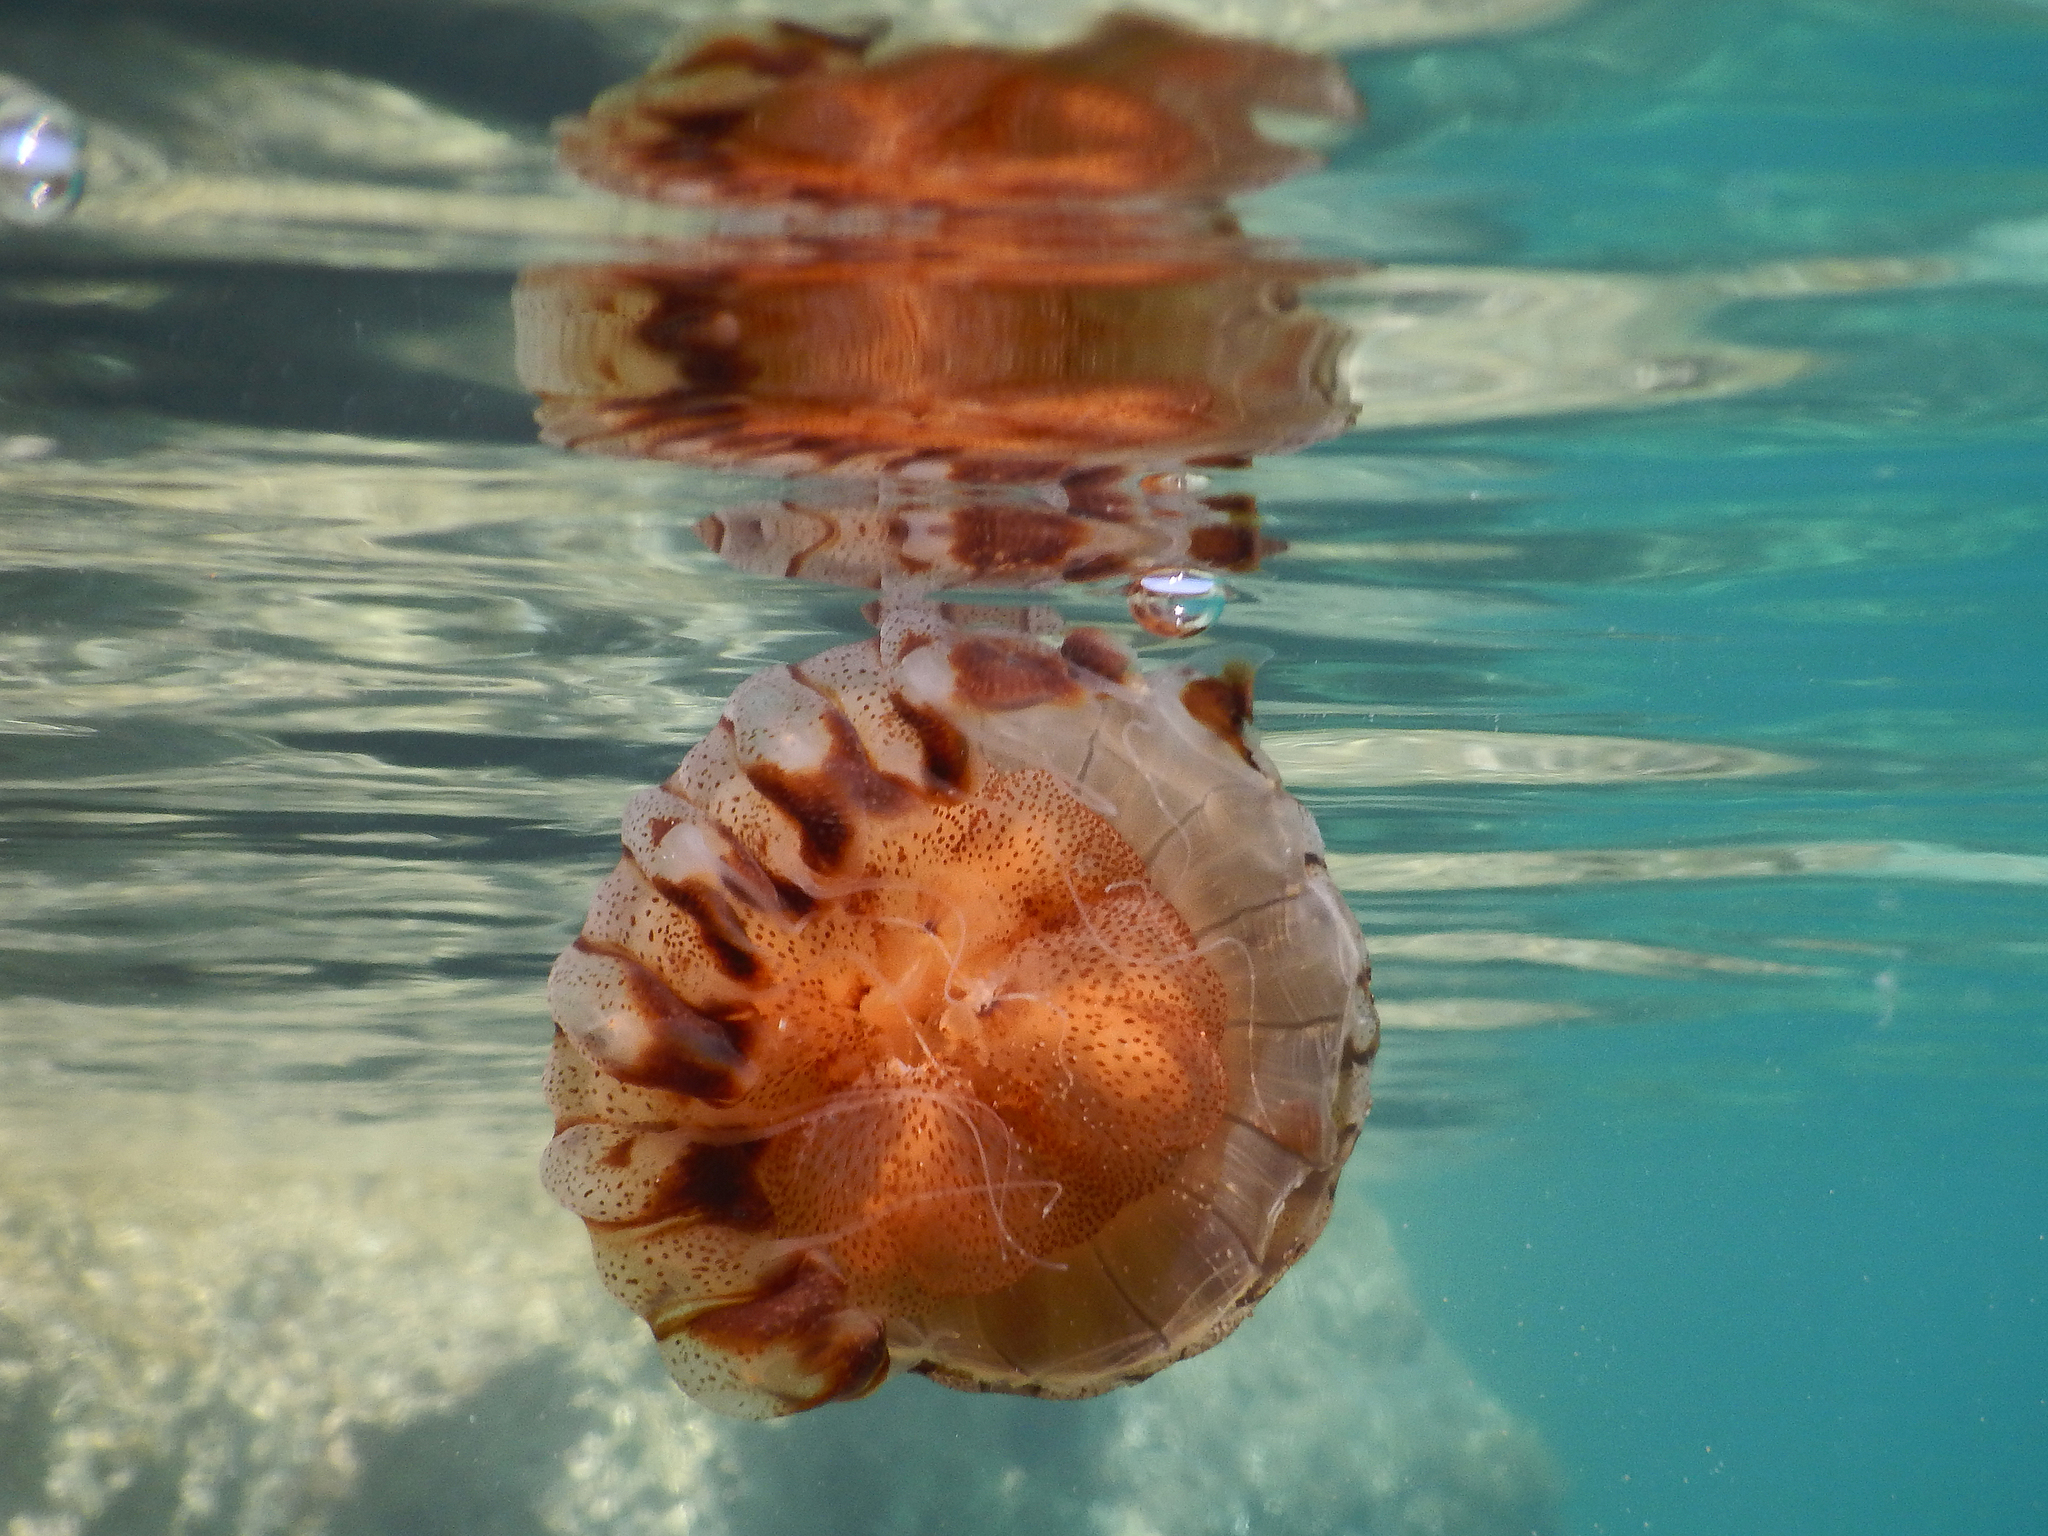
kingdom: Animalia
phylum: Cnidaria
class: Scyphozoa
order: Semaeostomeae
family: Pelagiidae
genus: Chrysaora
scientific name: Chrysaora hysoscella
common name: Compass jellyfish
